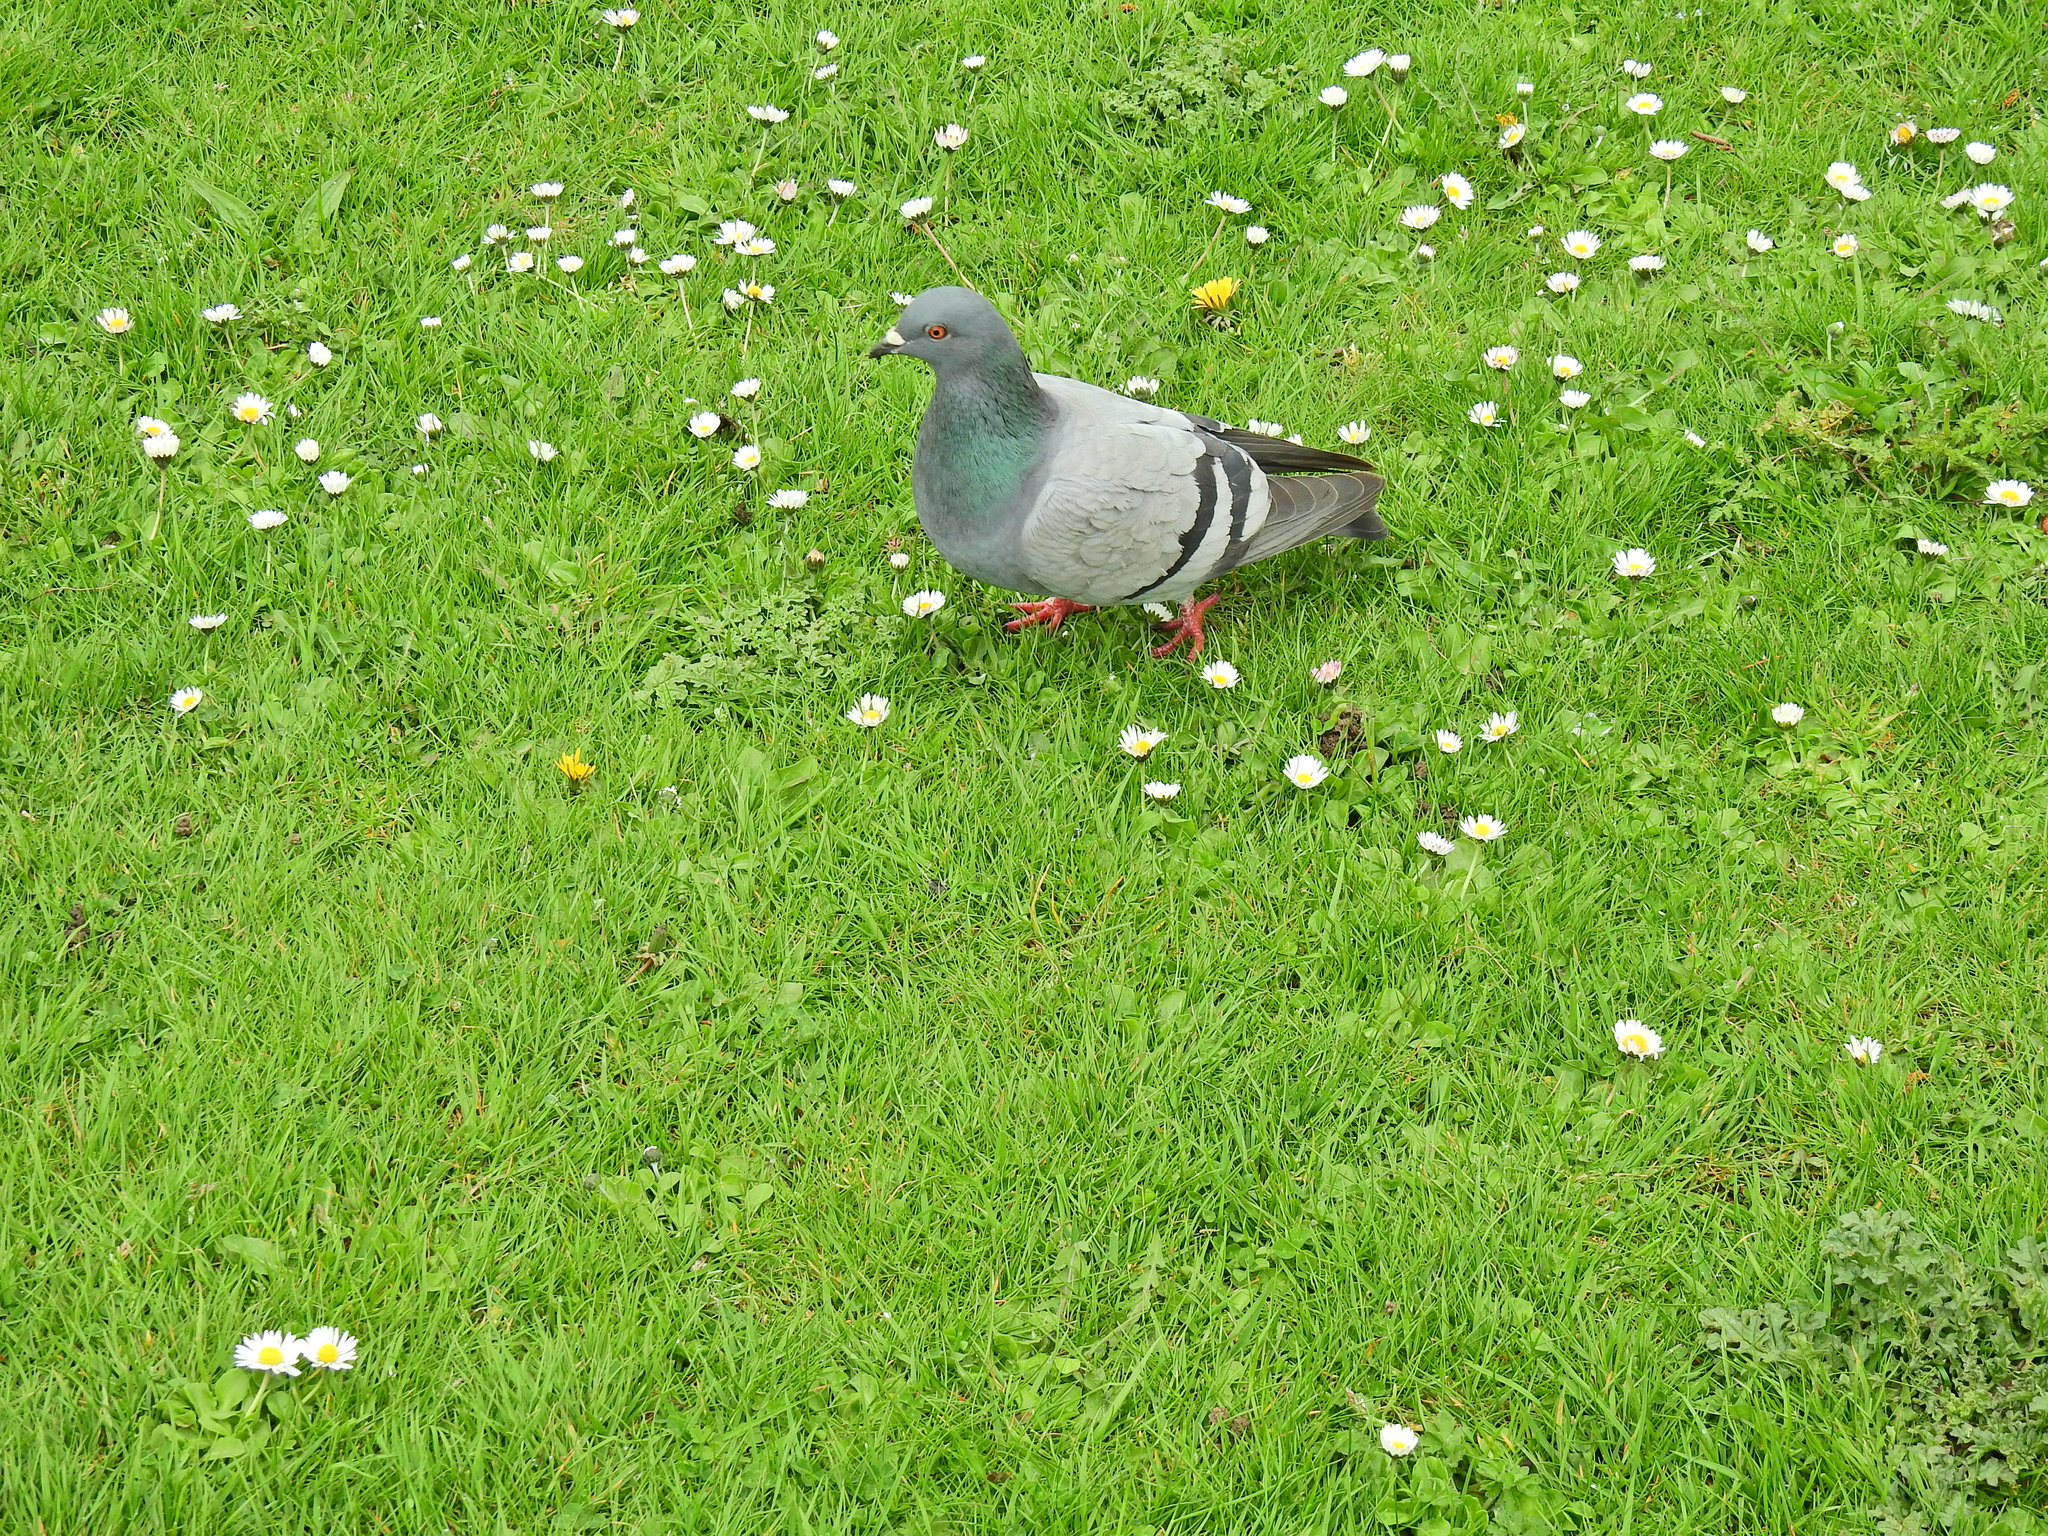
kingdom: Animalia
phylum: Chordata
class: Aves
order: Columbiformes
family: Columbidae
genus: Columba
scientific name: Columba livia
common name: Rock pigeon
